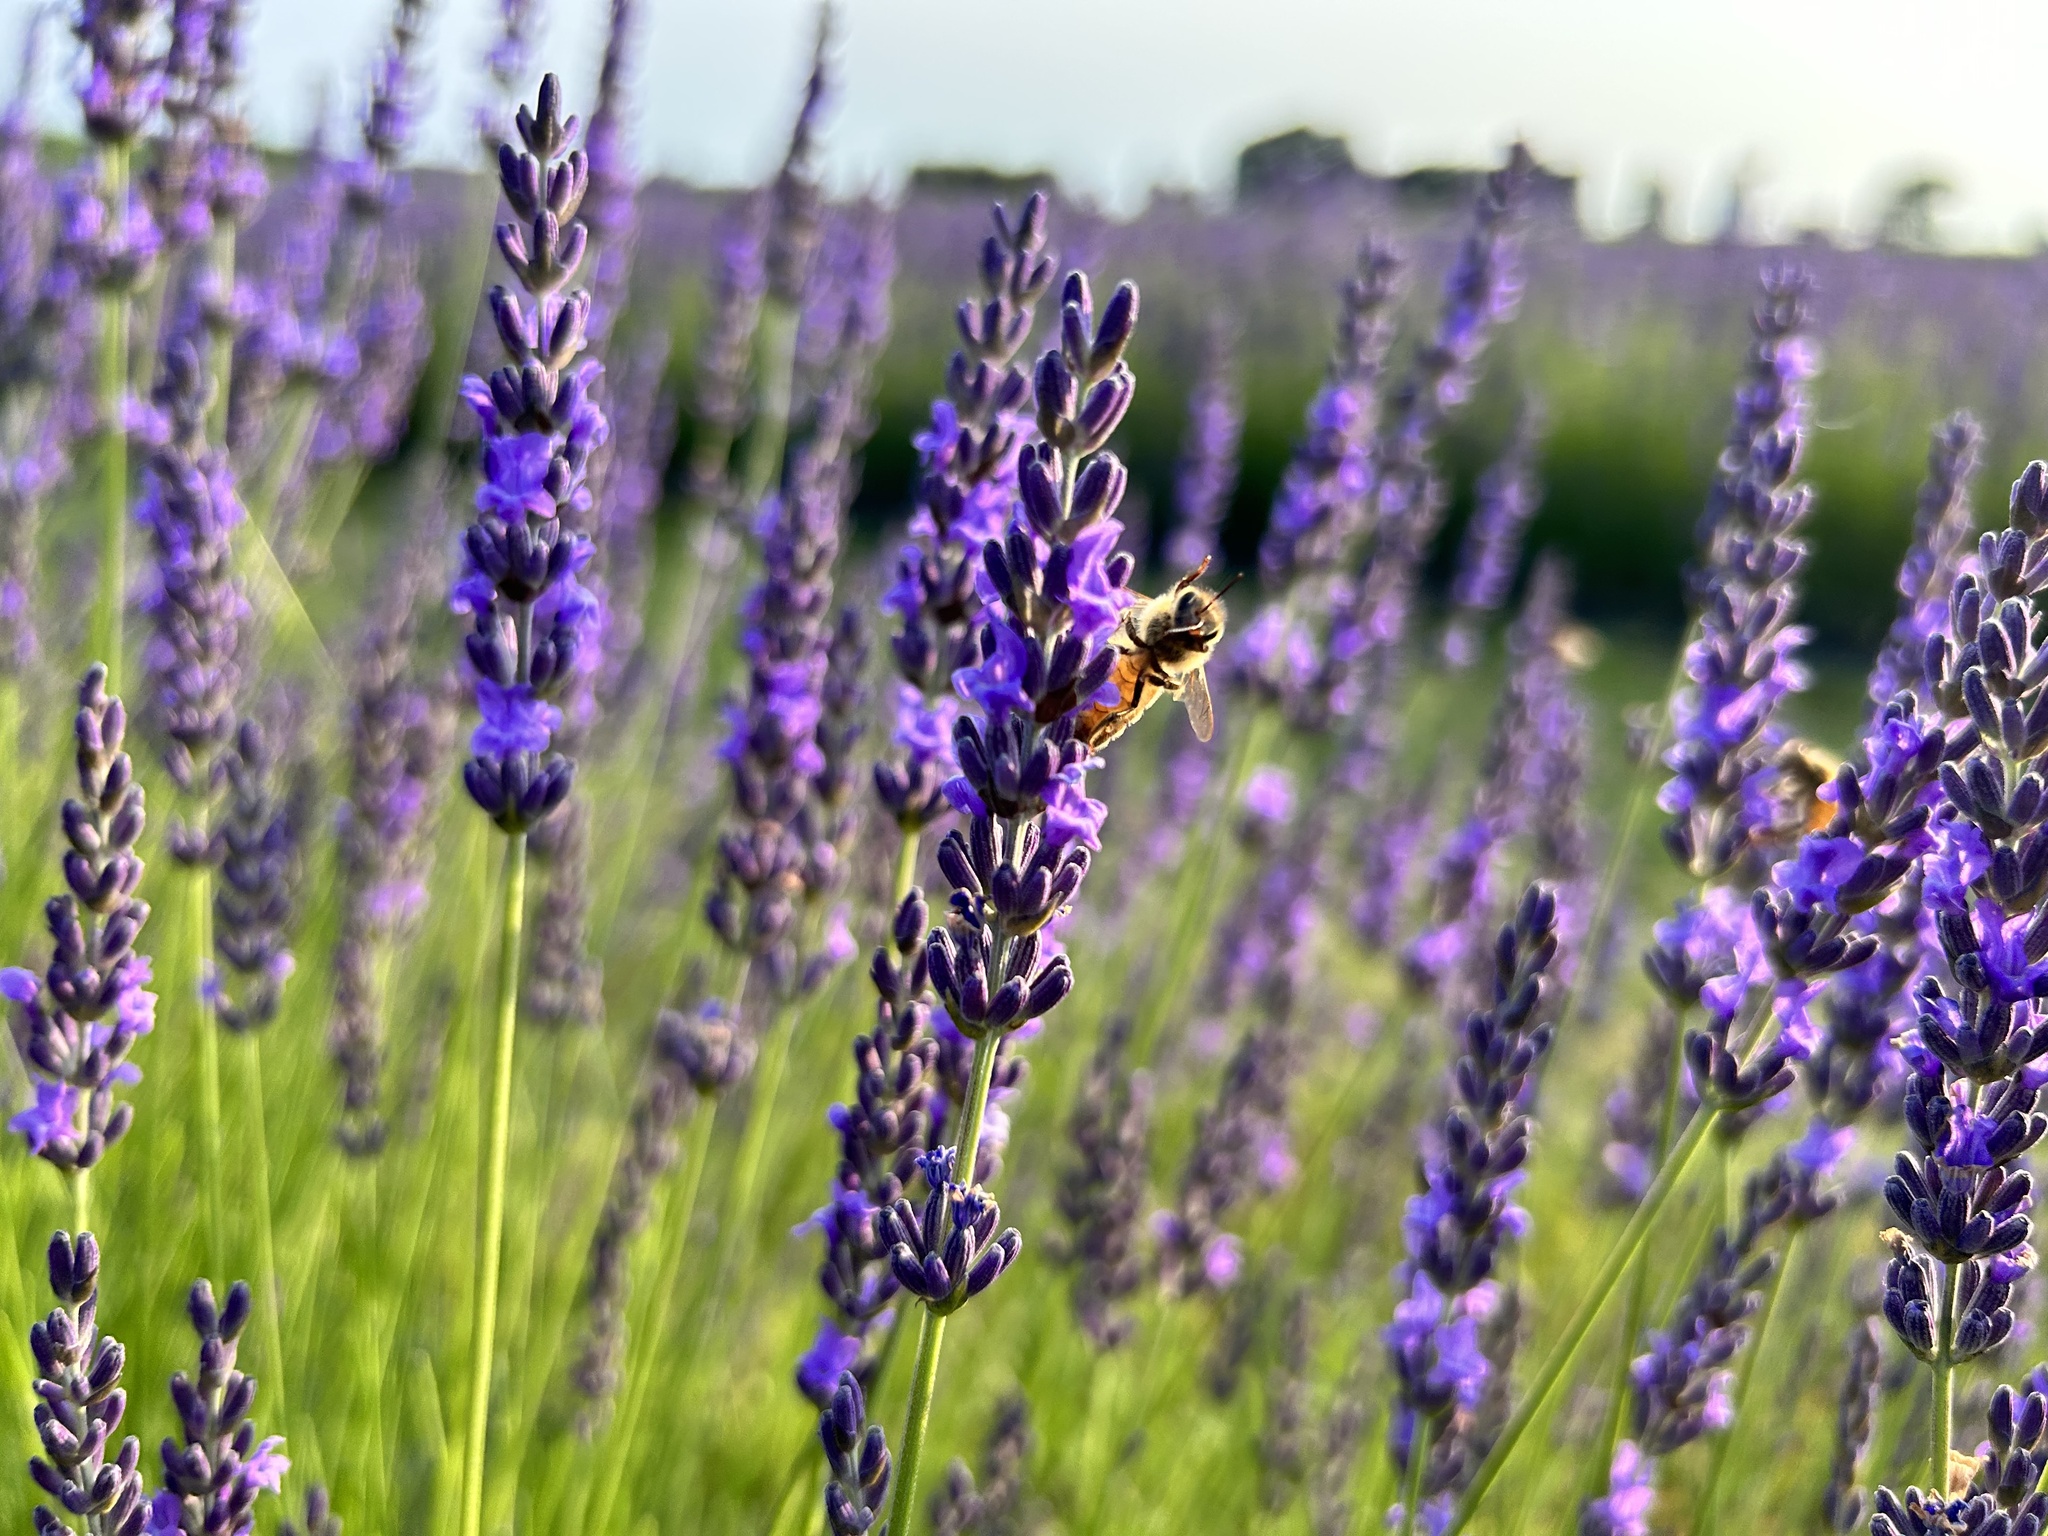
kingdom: Animalia
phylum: Arthropoda
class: Insecta
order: Hymenoptera
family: Apidae
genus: Apis
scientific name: Apis mellifera
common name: Honey bee
